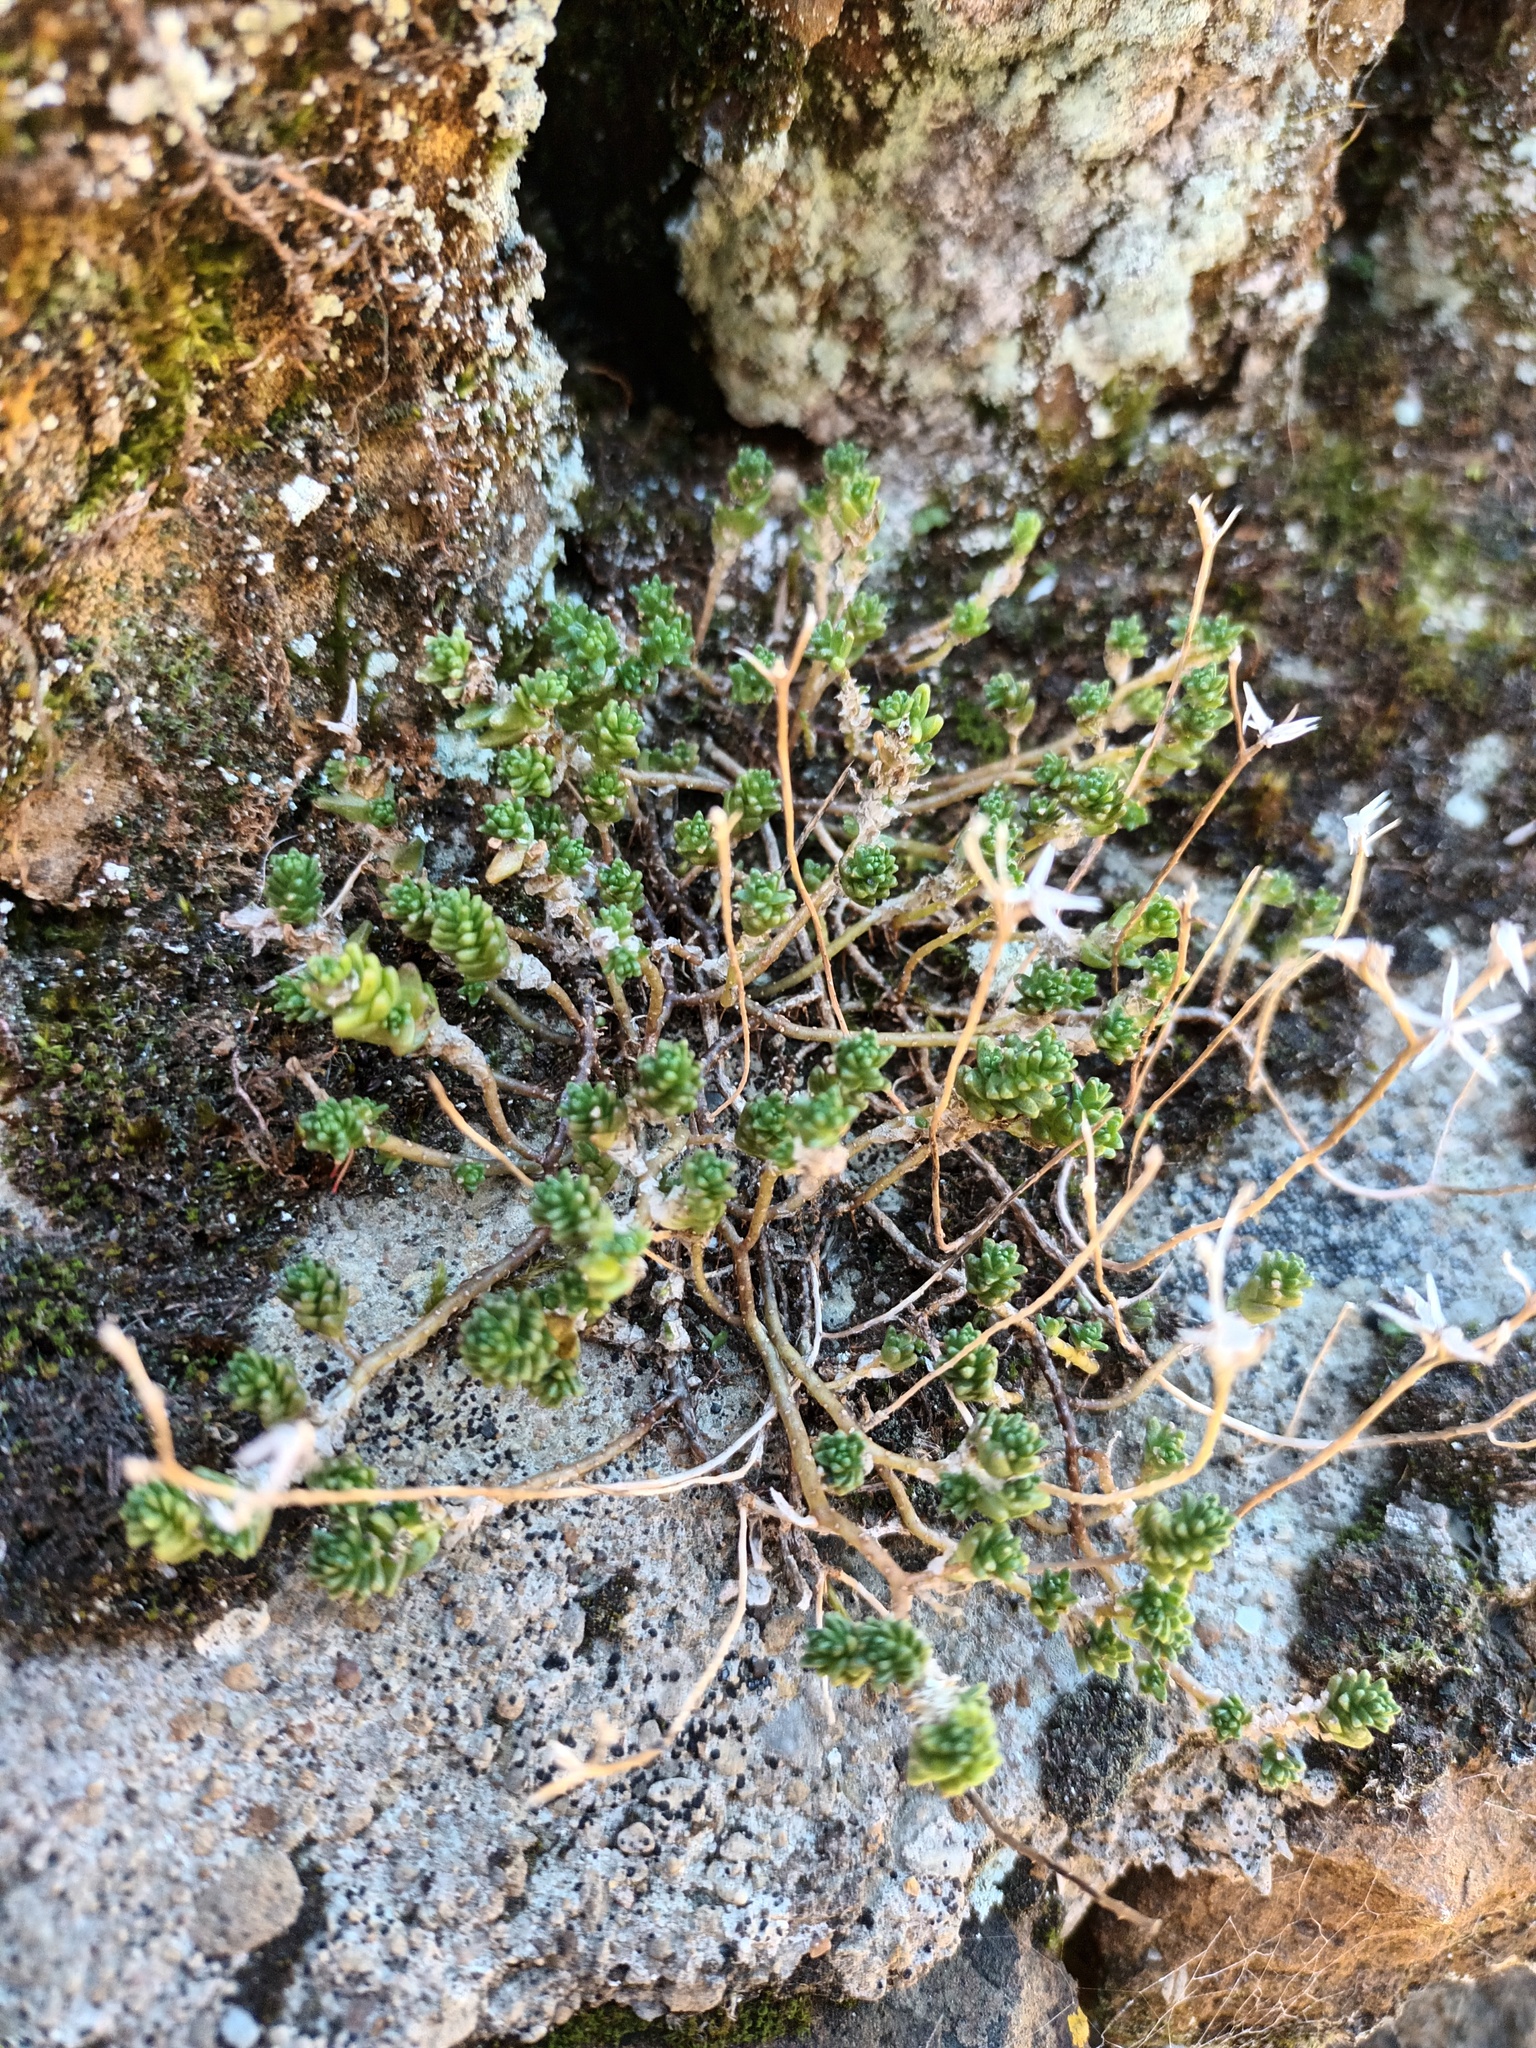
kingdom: Plantae
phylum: Tracheophyta
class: Magnoliopsida
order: Saxifragales
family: Crassulaceae
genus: Sedum
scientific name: Sedum acre
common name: Biting stonecrop
